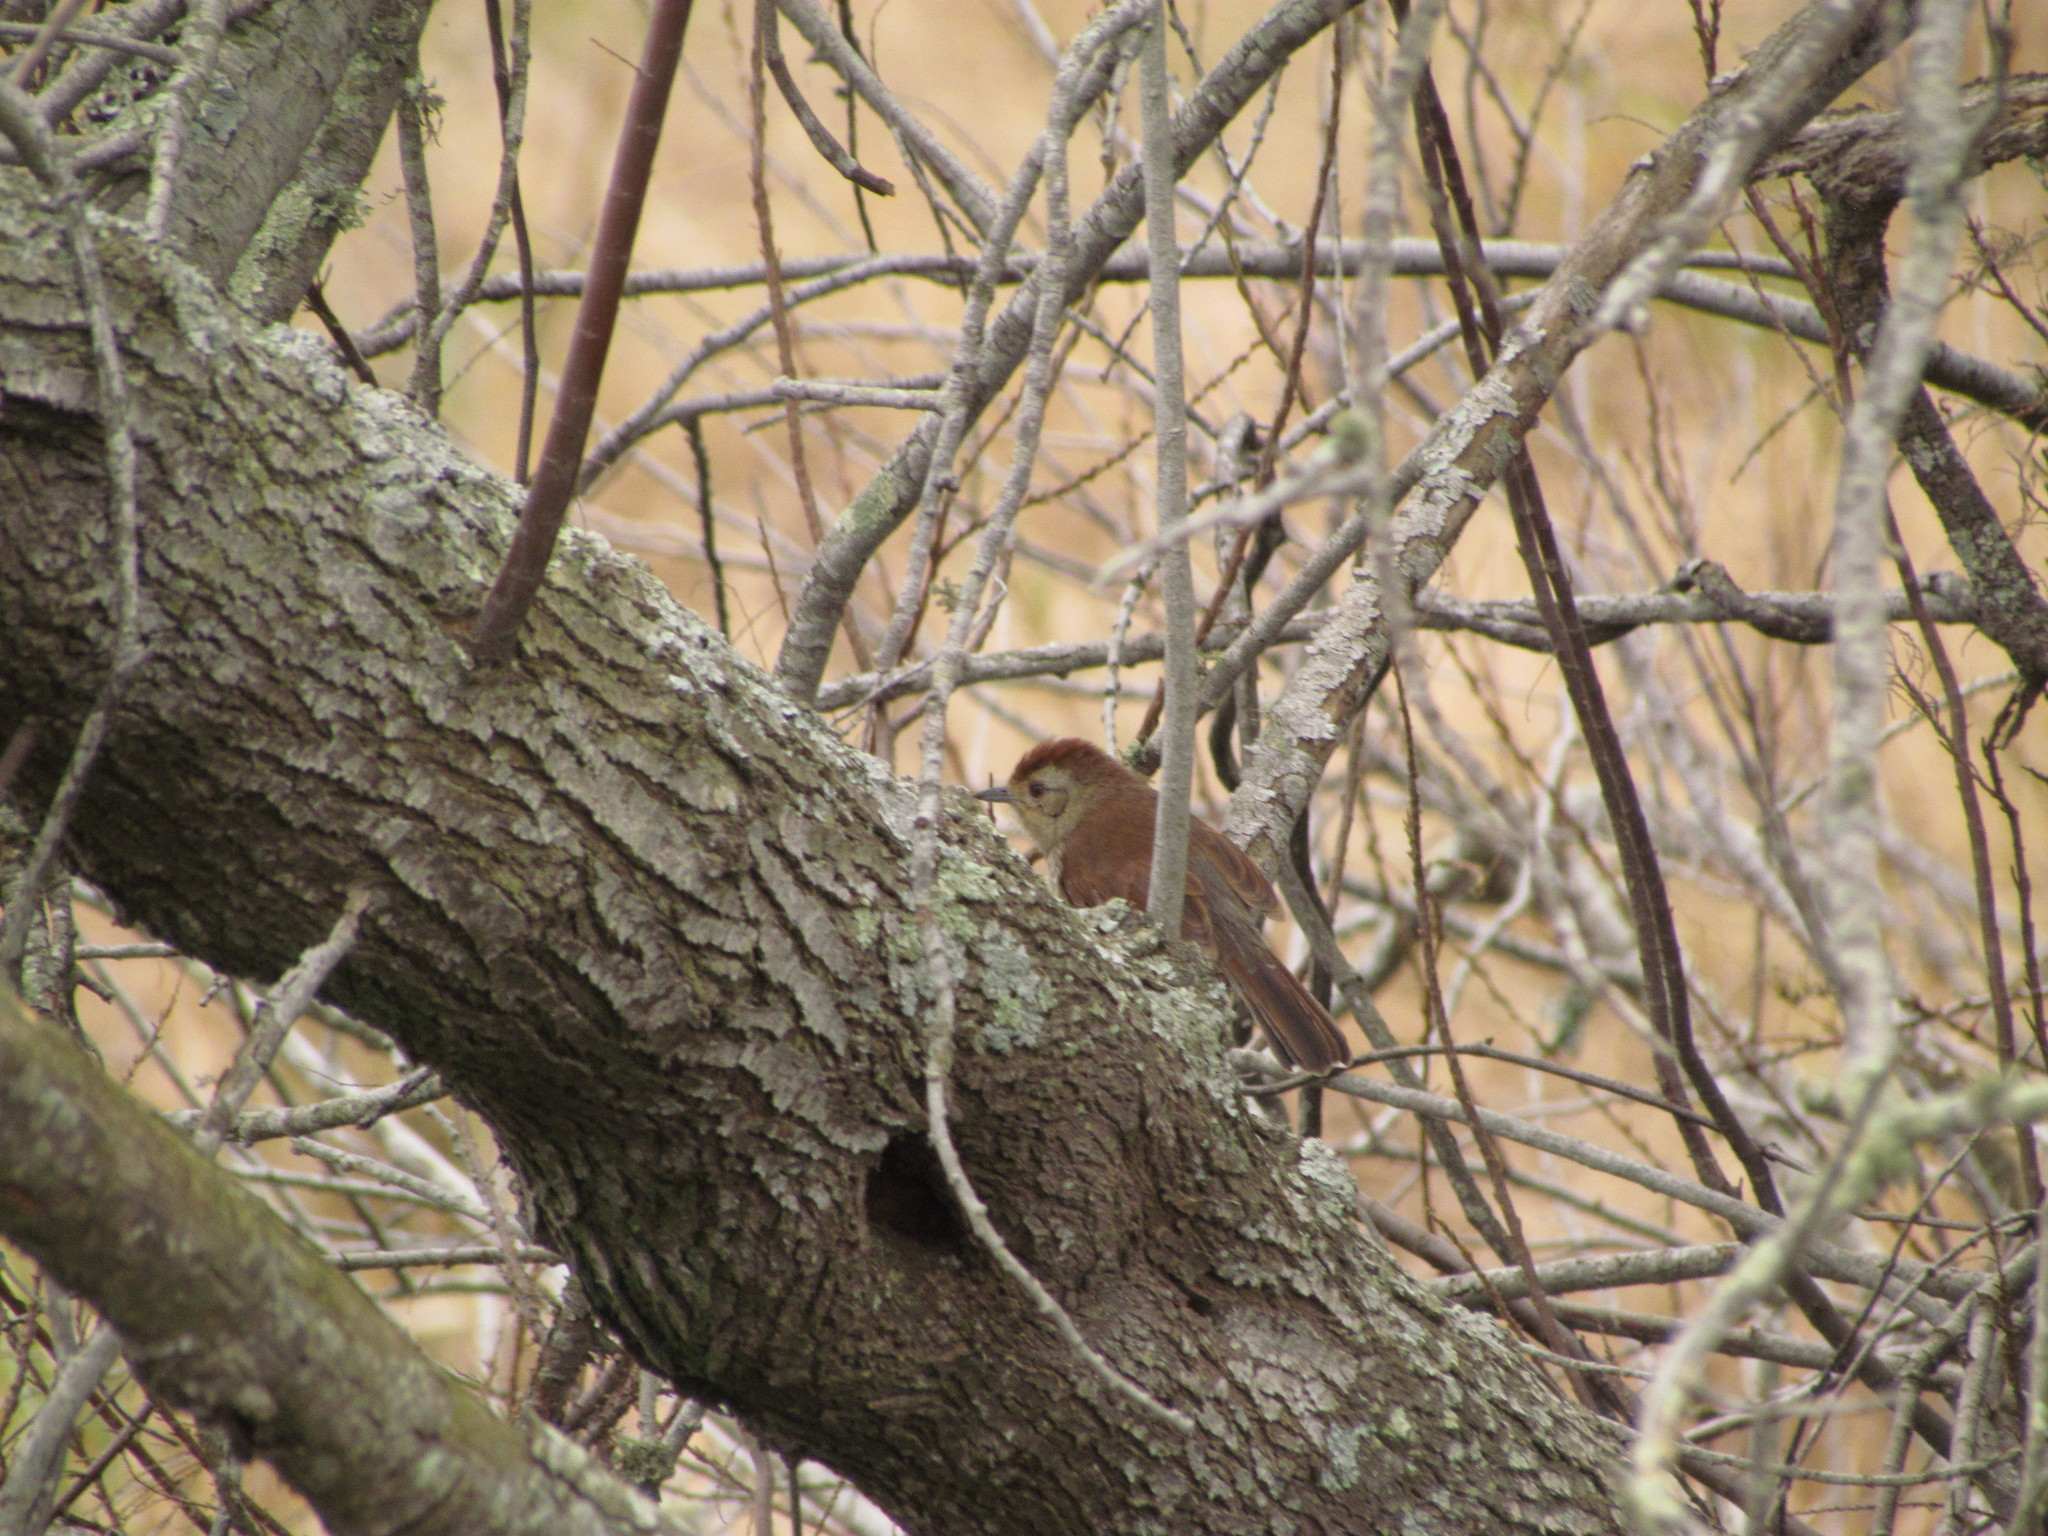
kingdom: Animalia
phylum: Chordata
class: Aves
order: Passeriformes
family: Thamnophilidae
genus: Thamnophilus
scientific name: Thamnophilus ruficapillus
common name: Rufous-capped antshrike
